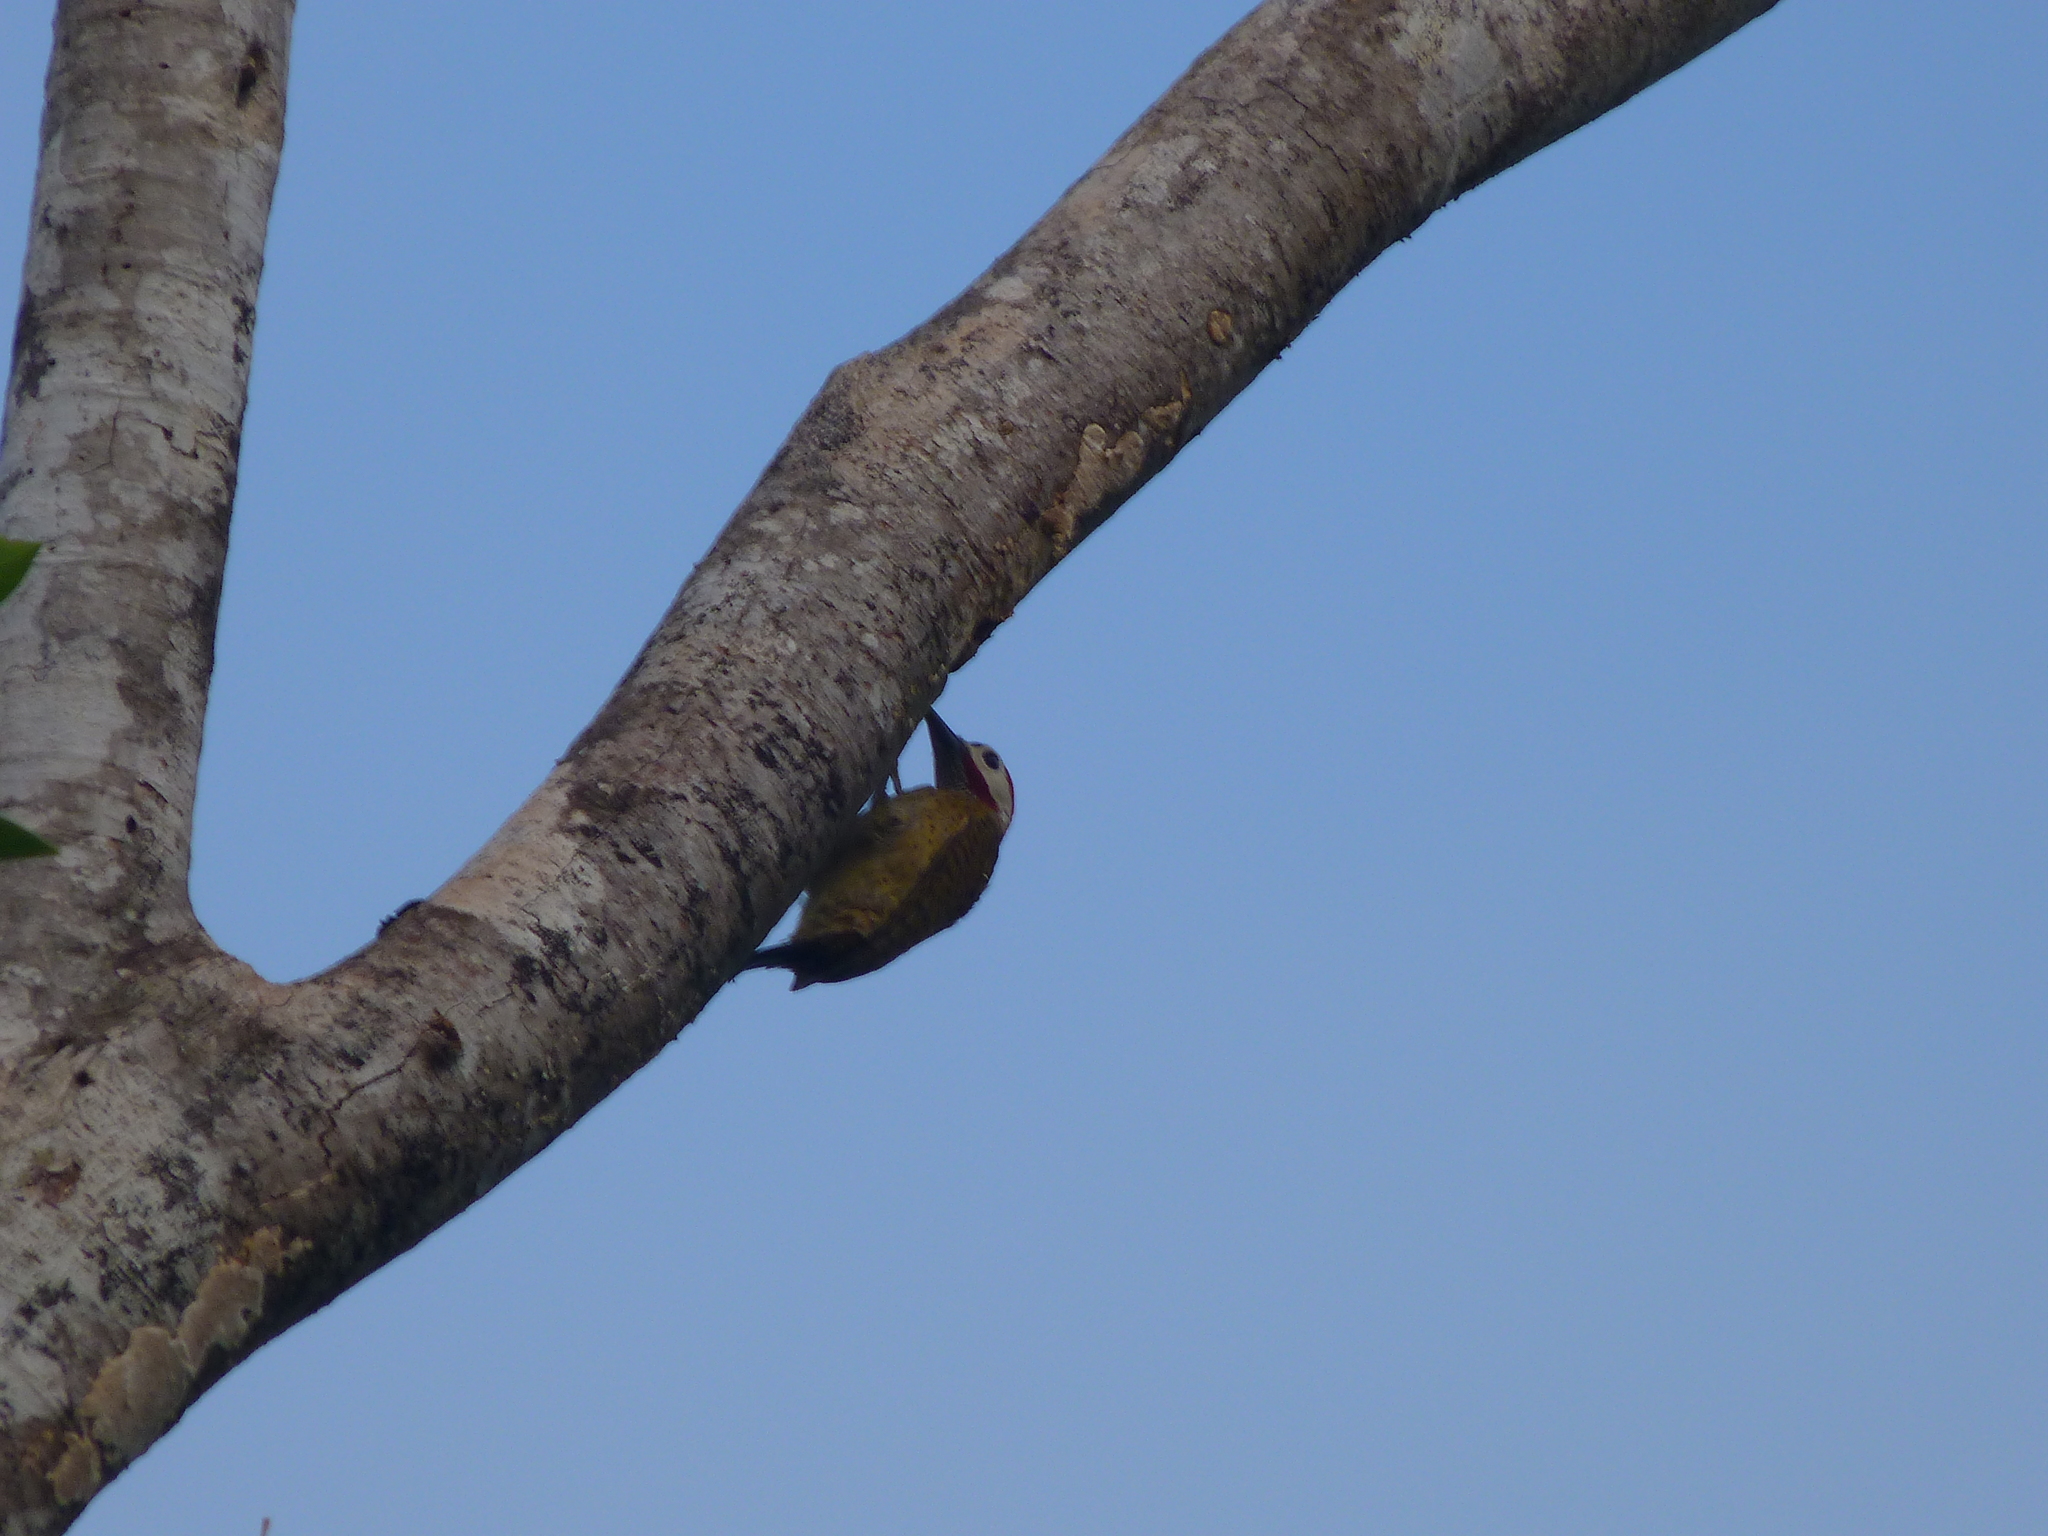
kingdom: Animalia
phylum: Chordata
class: Aves
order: Piciformes
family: Picidae
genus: Colaptes
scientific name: Colaptes punctigula
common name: Spot-breasted woodpecker
